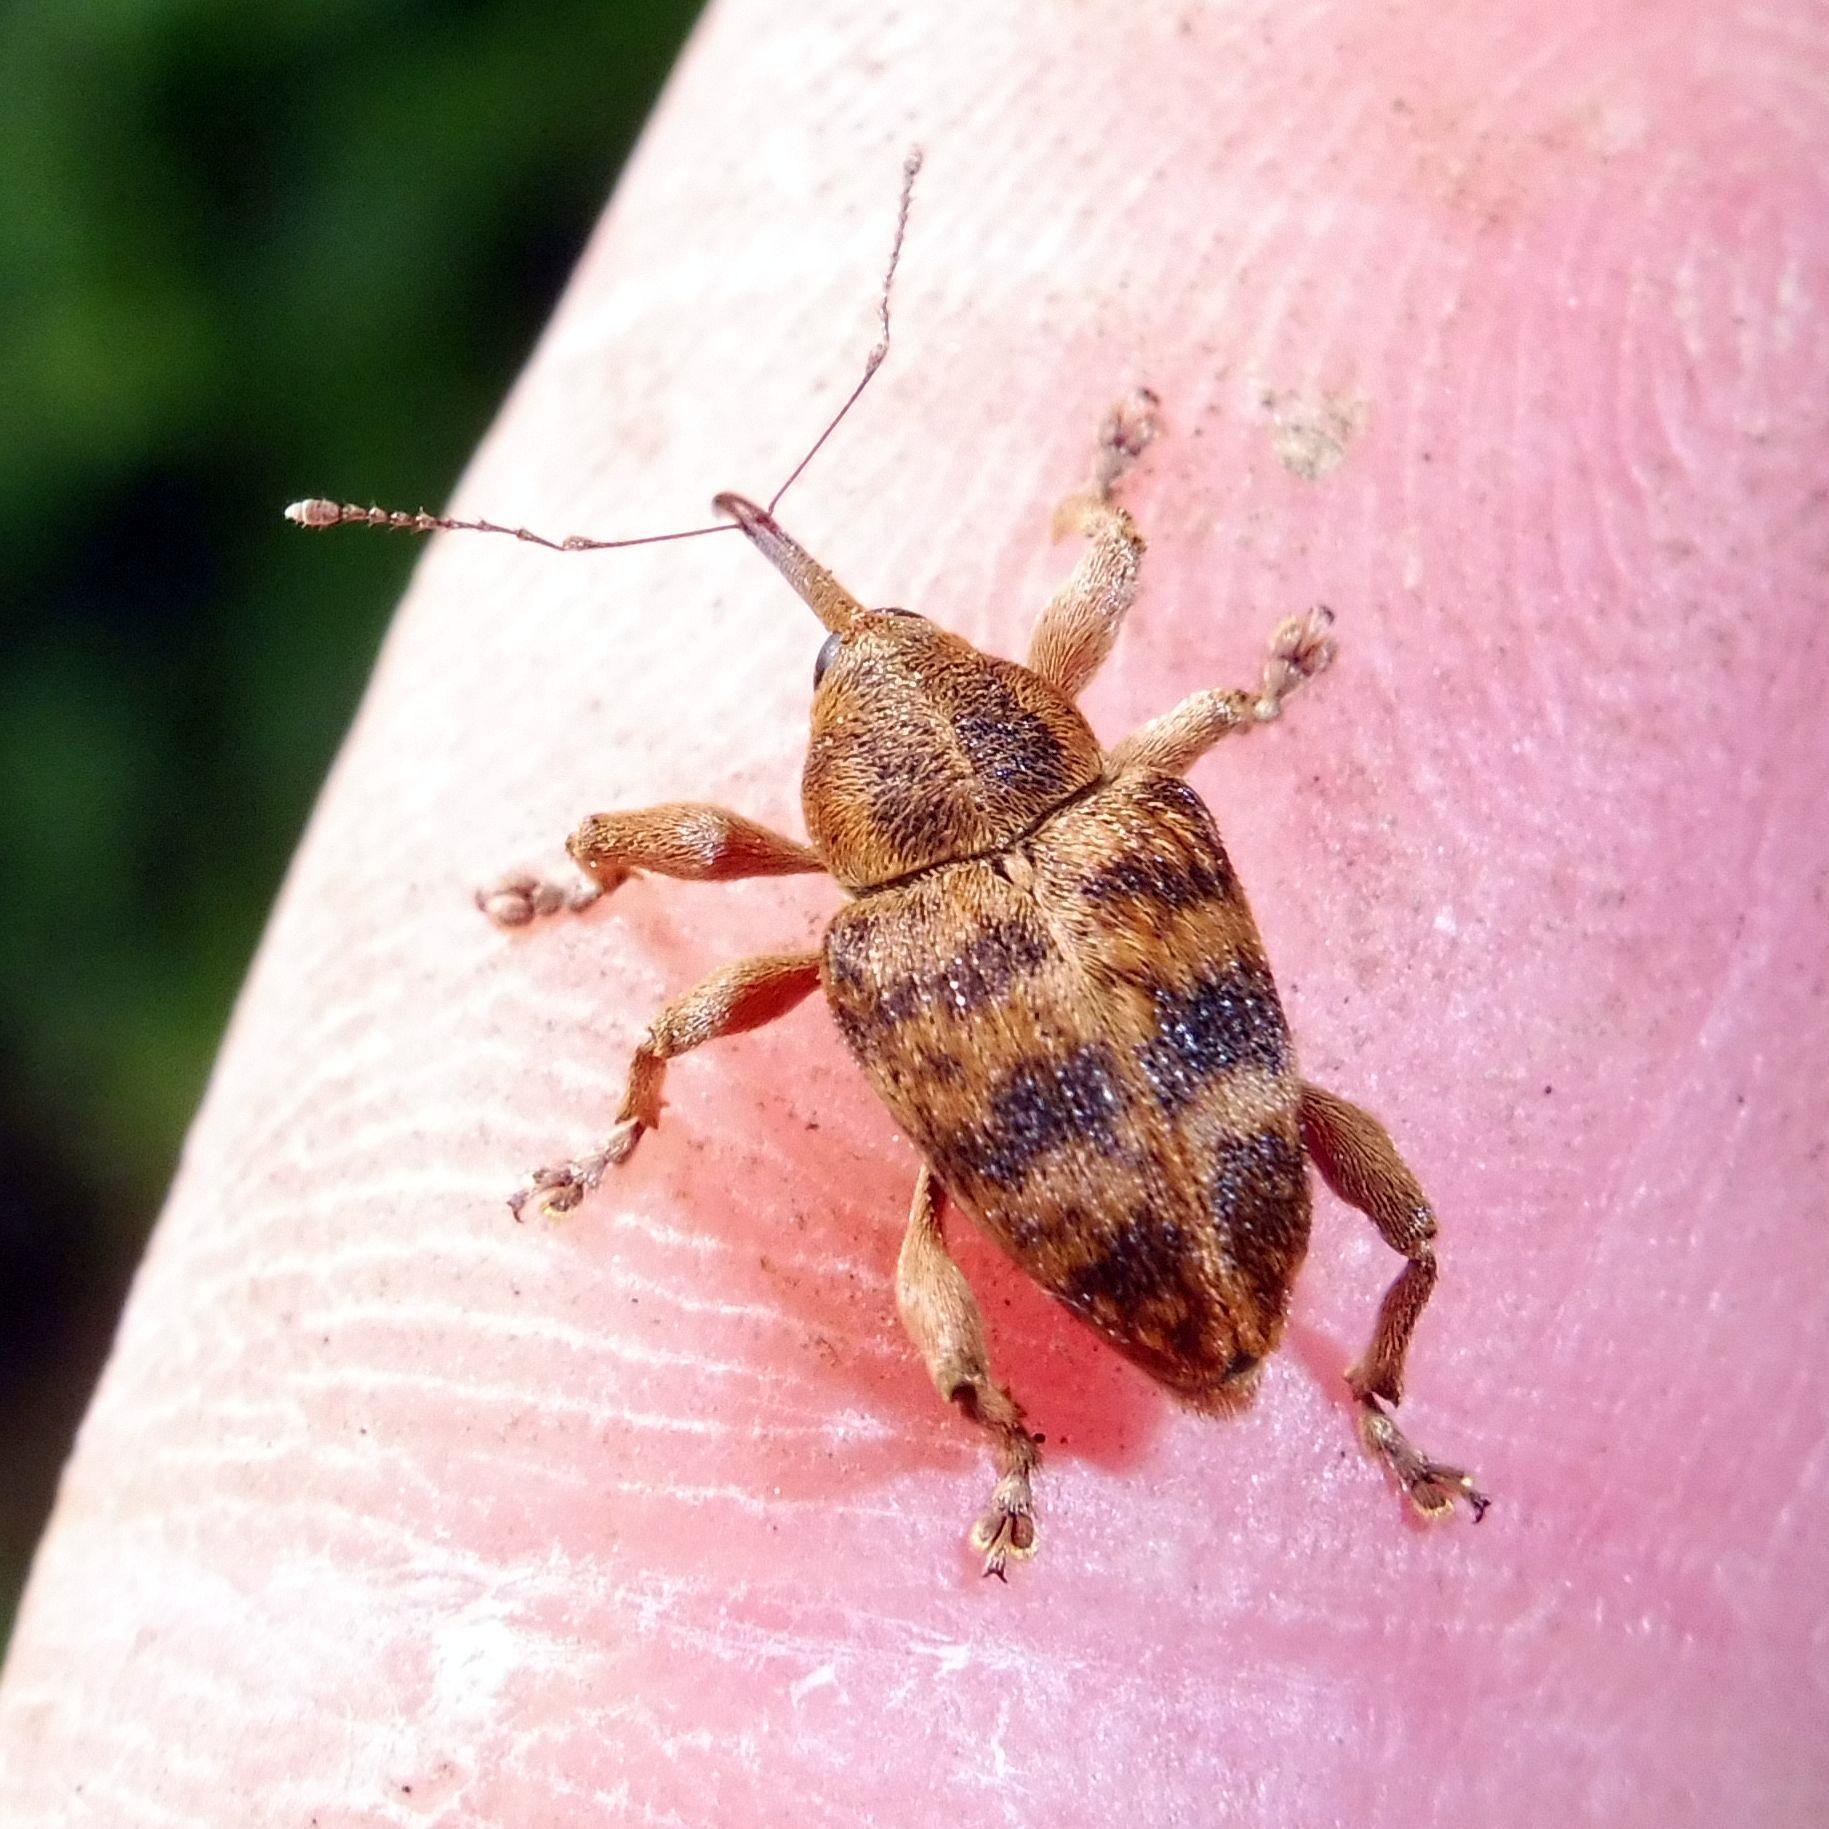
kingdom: Animalia
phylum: Arthropoda
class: Insecta
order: Coleoptera
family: Curculionidae
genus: Curculio
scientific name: Curculio venosus
